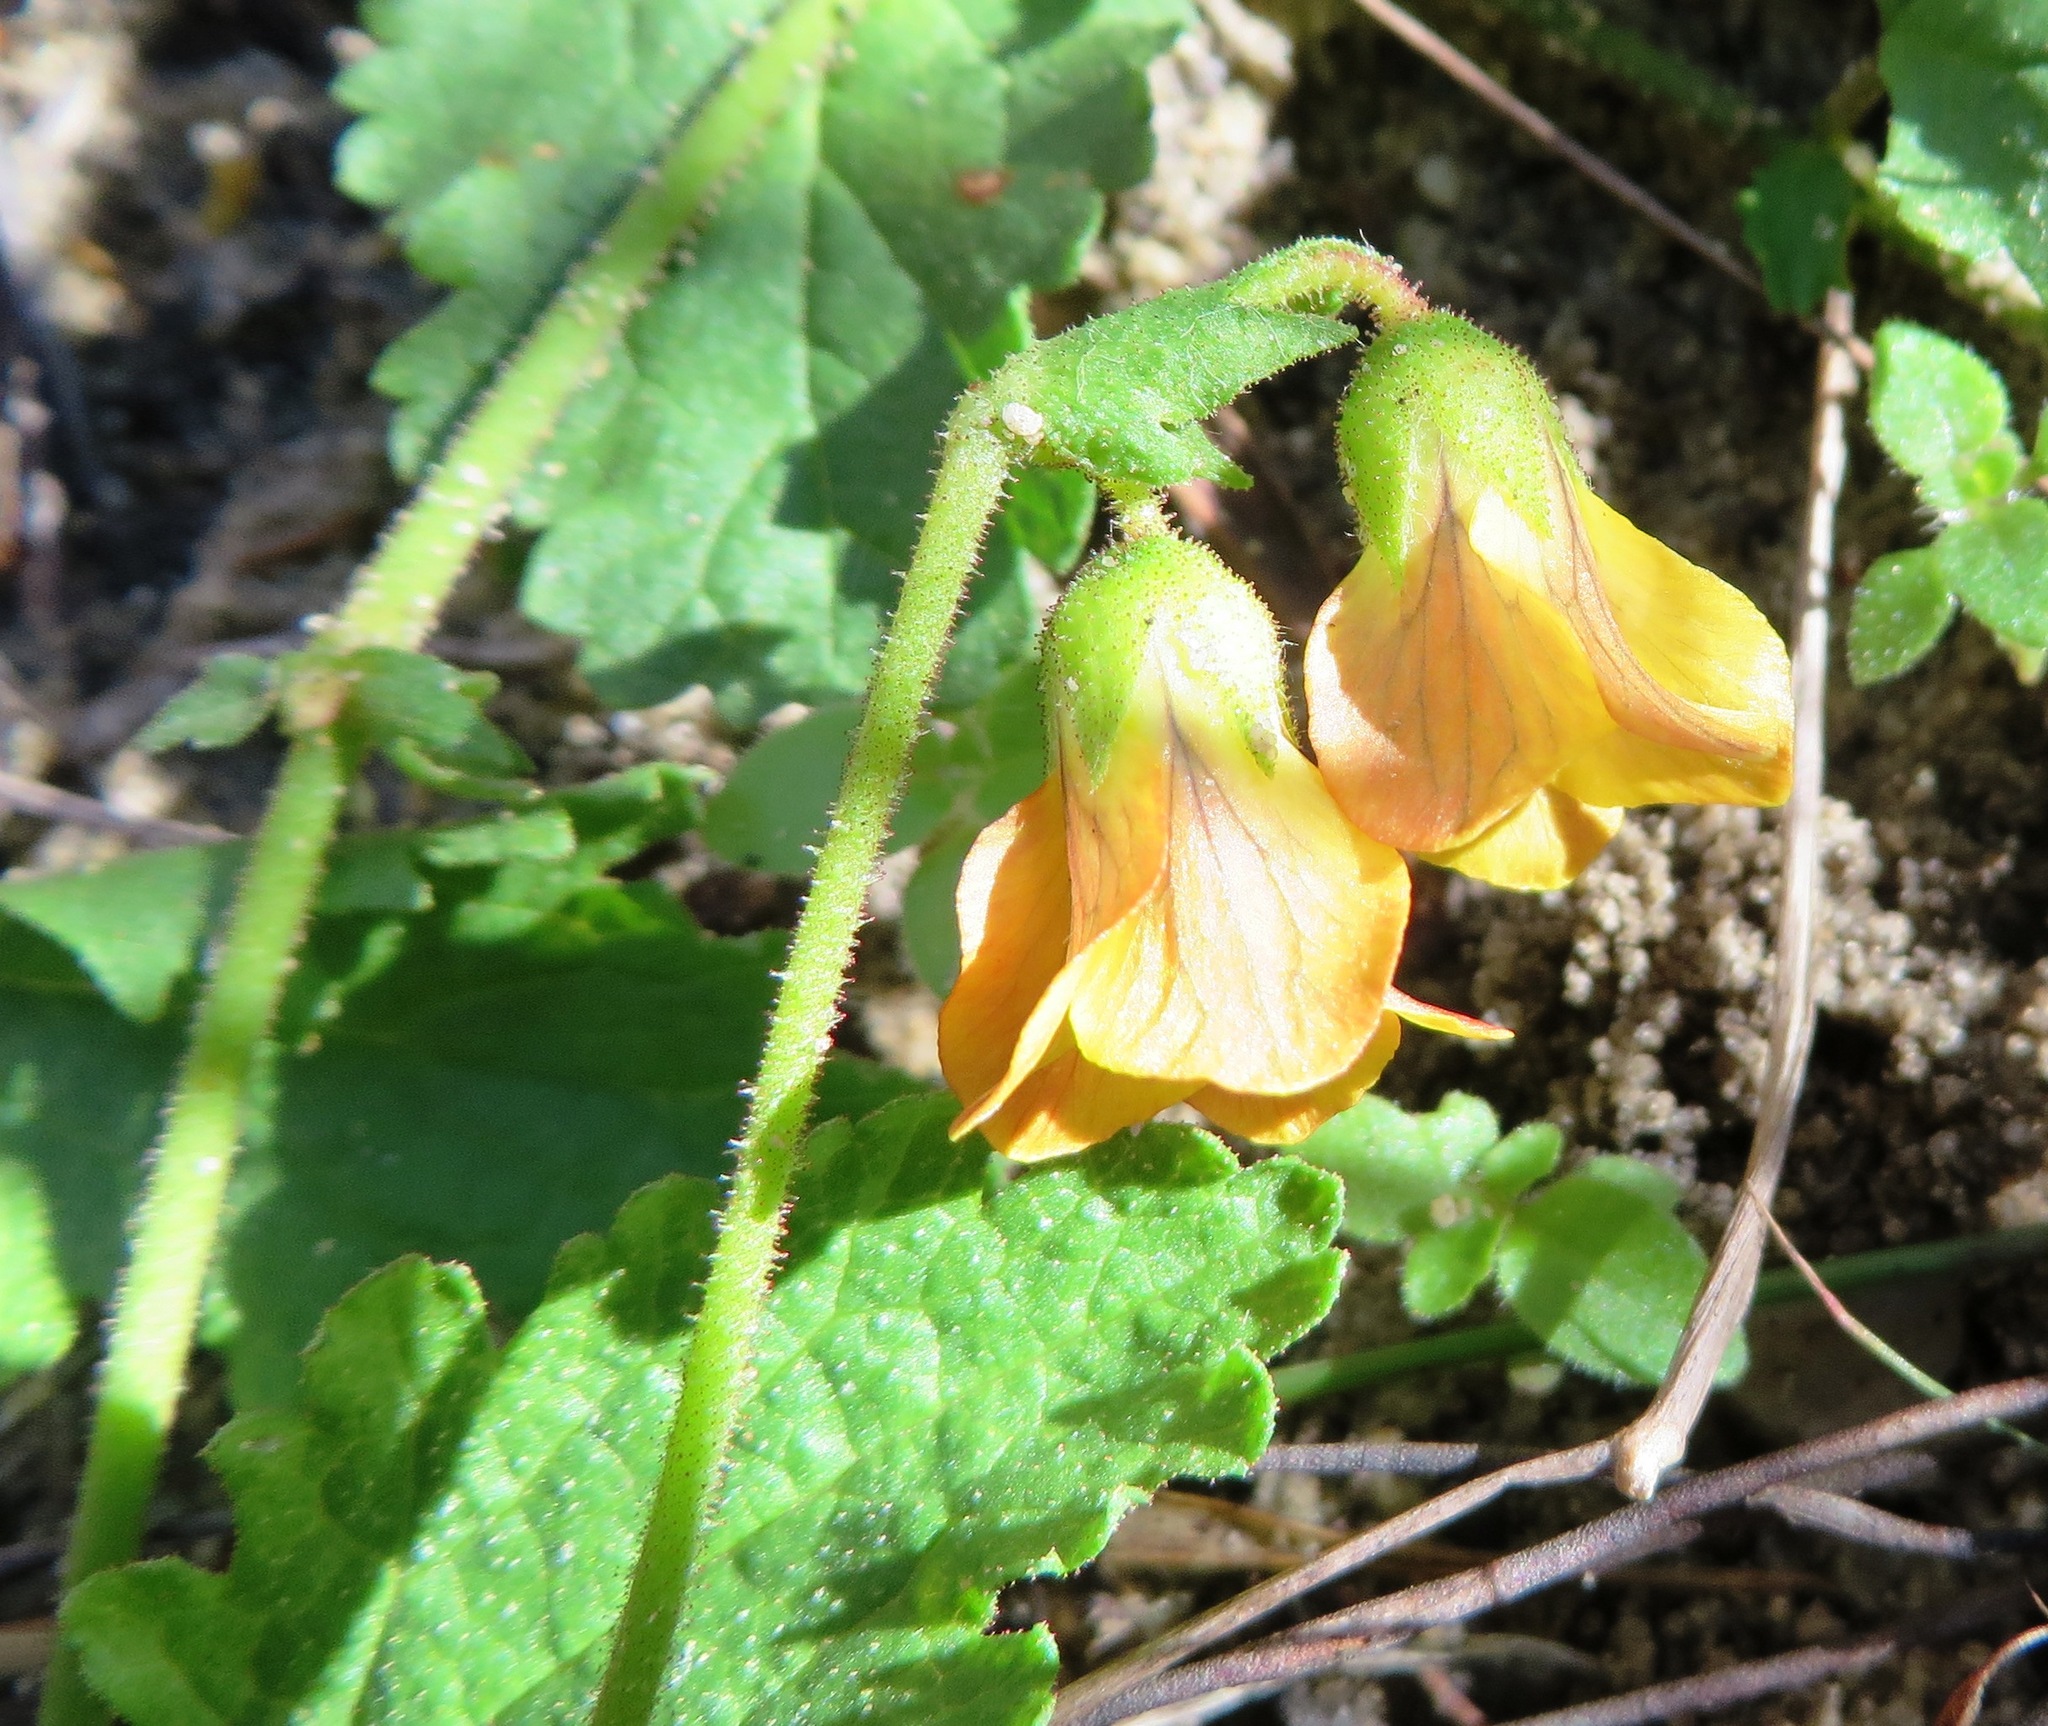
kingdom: Plantae
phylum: Tracheophyta
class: Magnoliopsida
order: Malvales
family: Malvaceae
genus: Hermannia
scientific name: Hermannia scabricaulis
